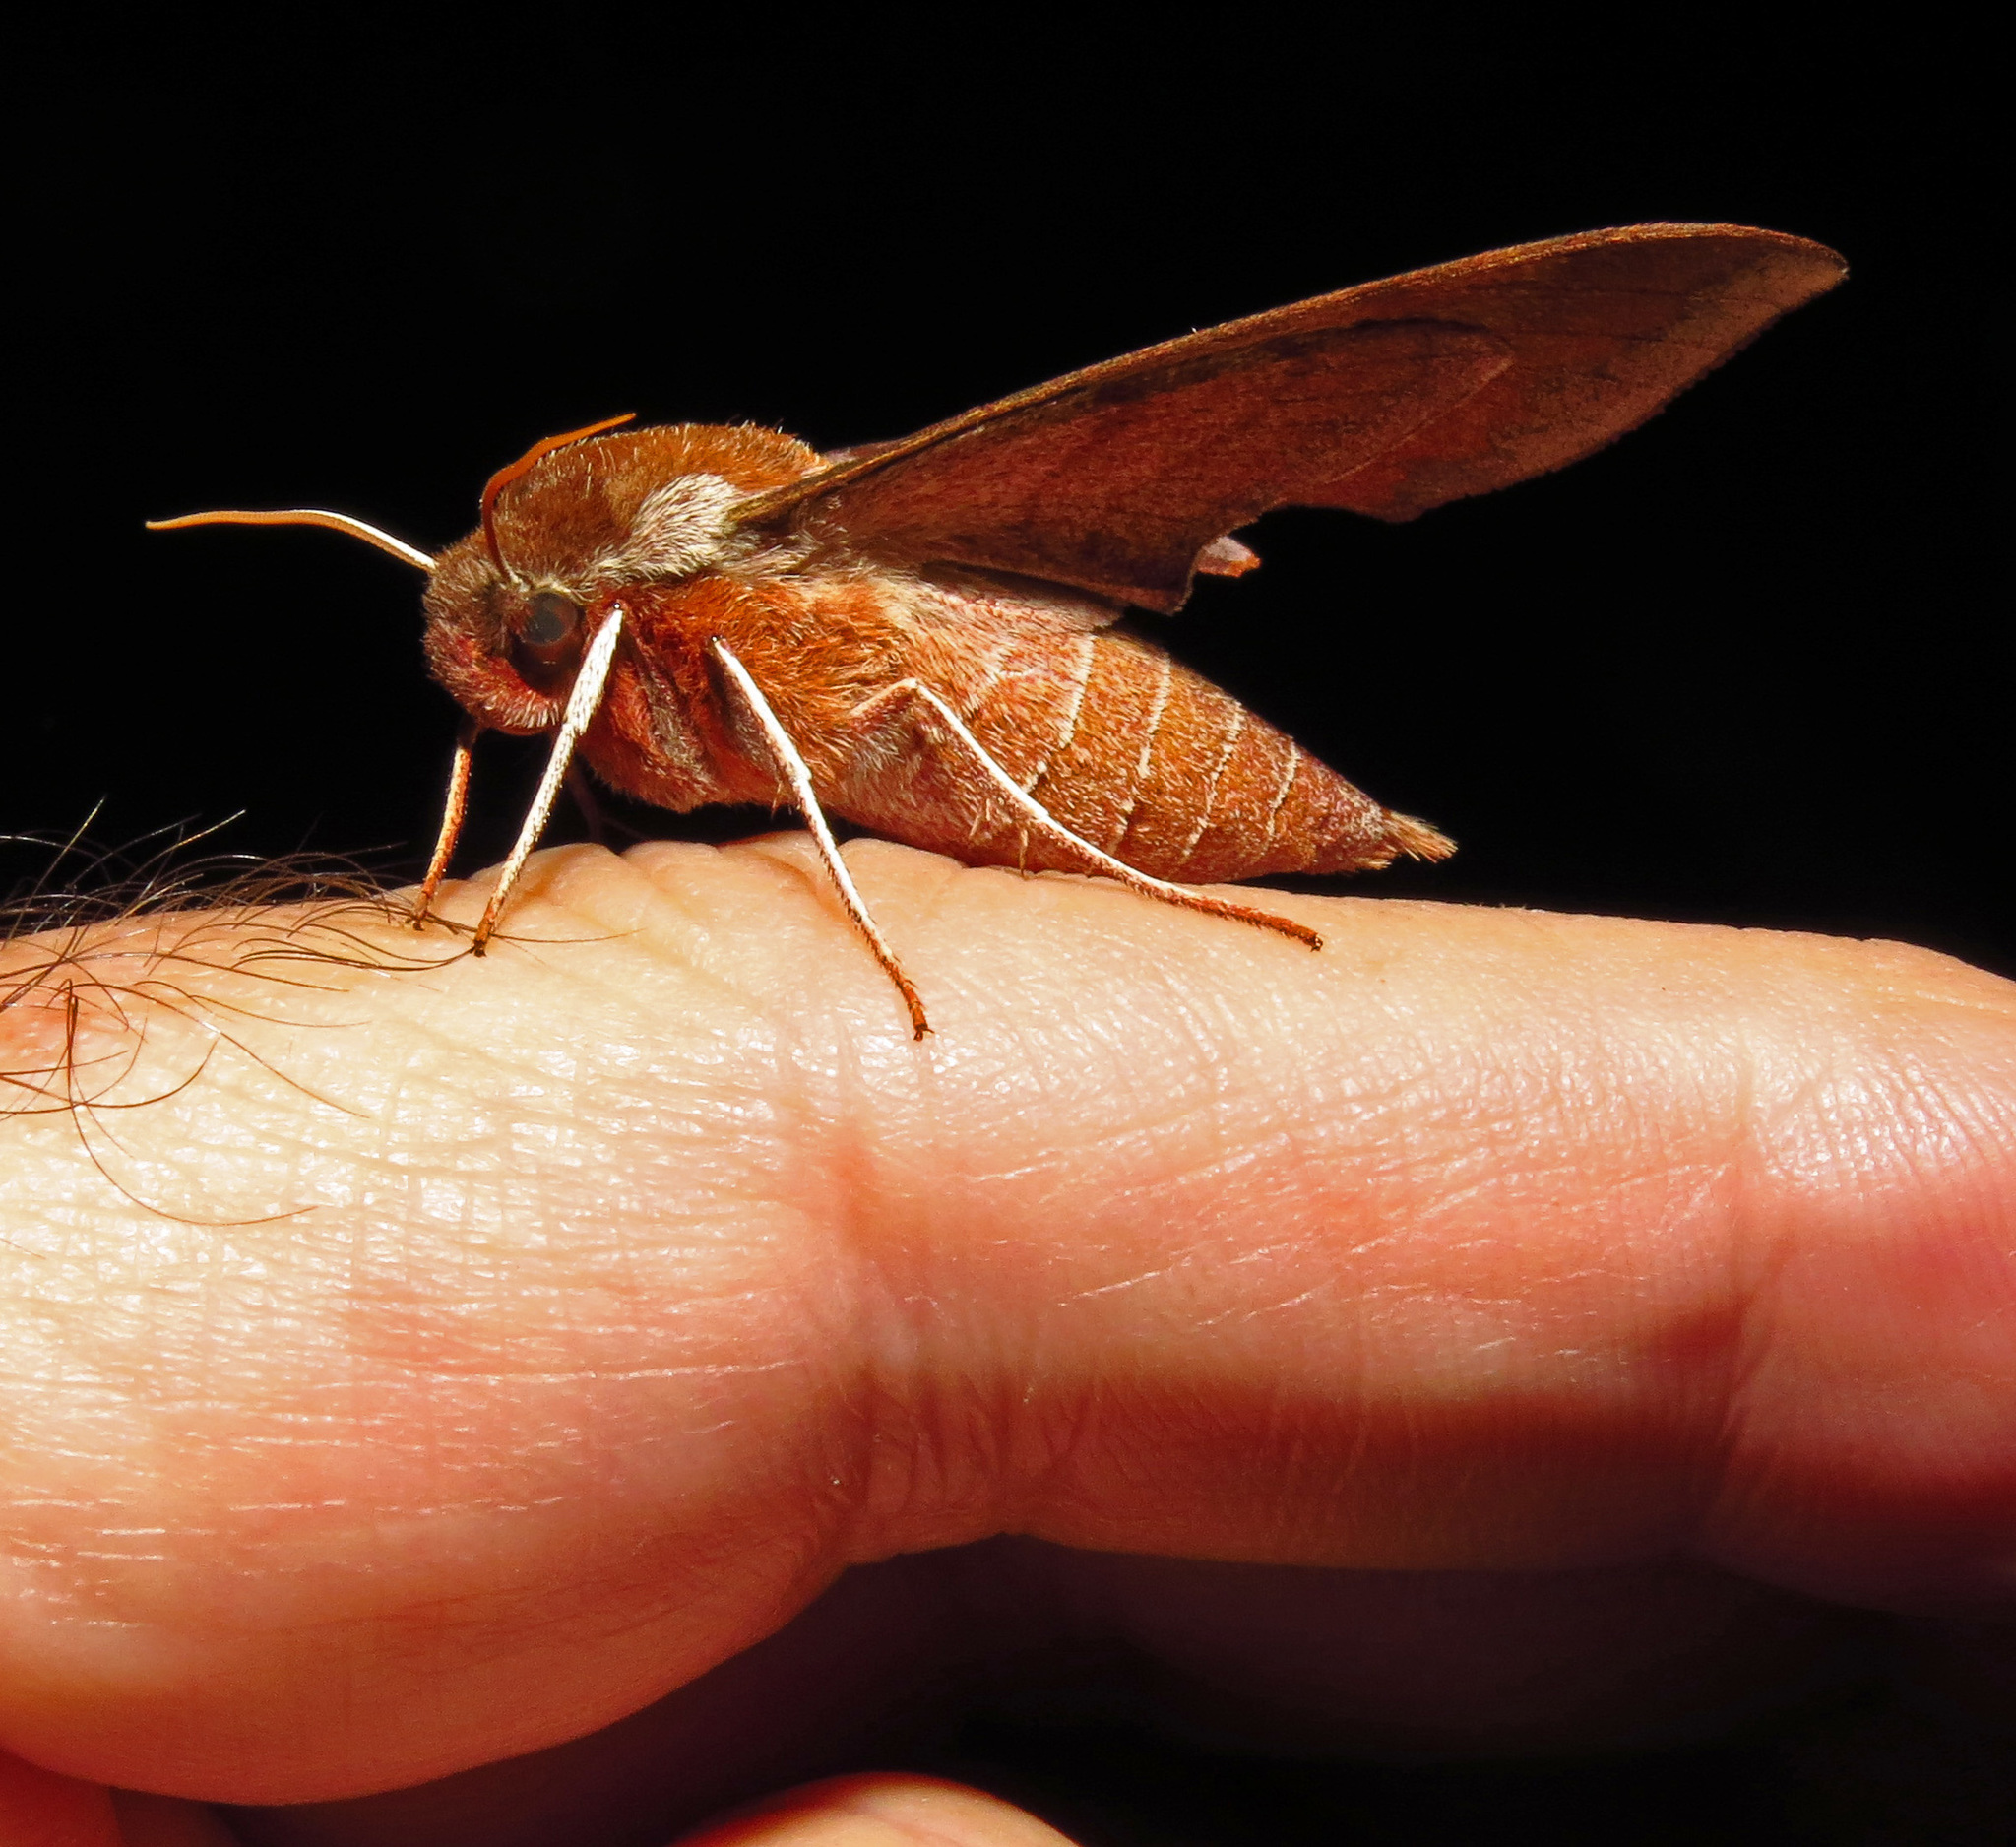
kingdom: Animalia
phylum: Arthropoda
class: Insecta
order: Lepidoptera
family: Sphingidae
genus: Darapsa
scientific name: Darapsa choerilus
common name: Azalea sphinx
